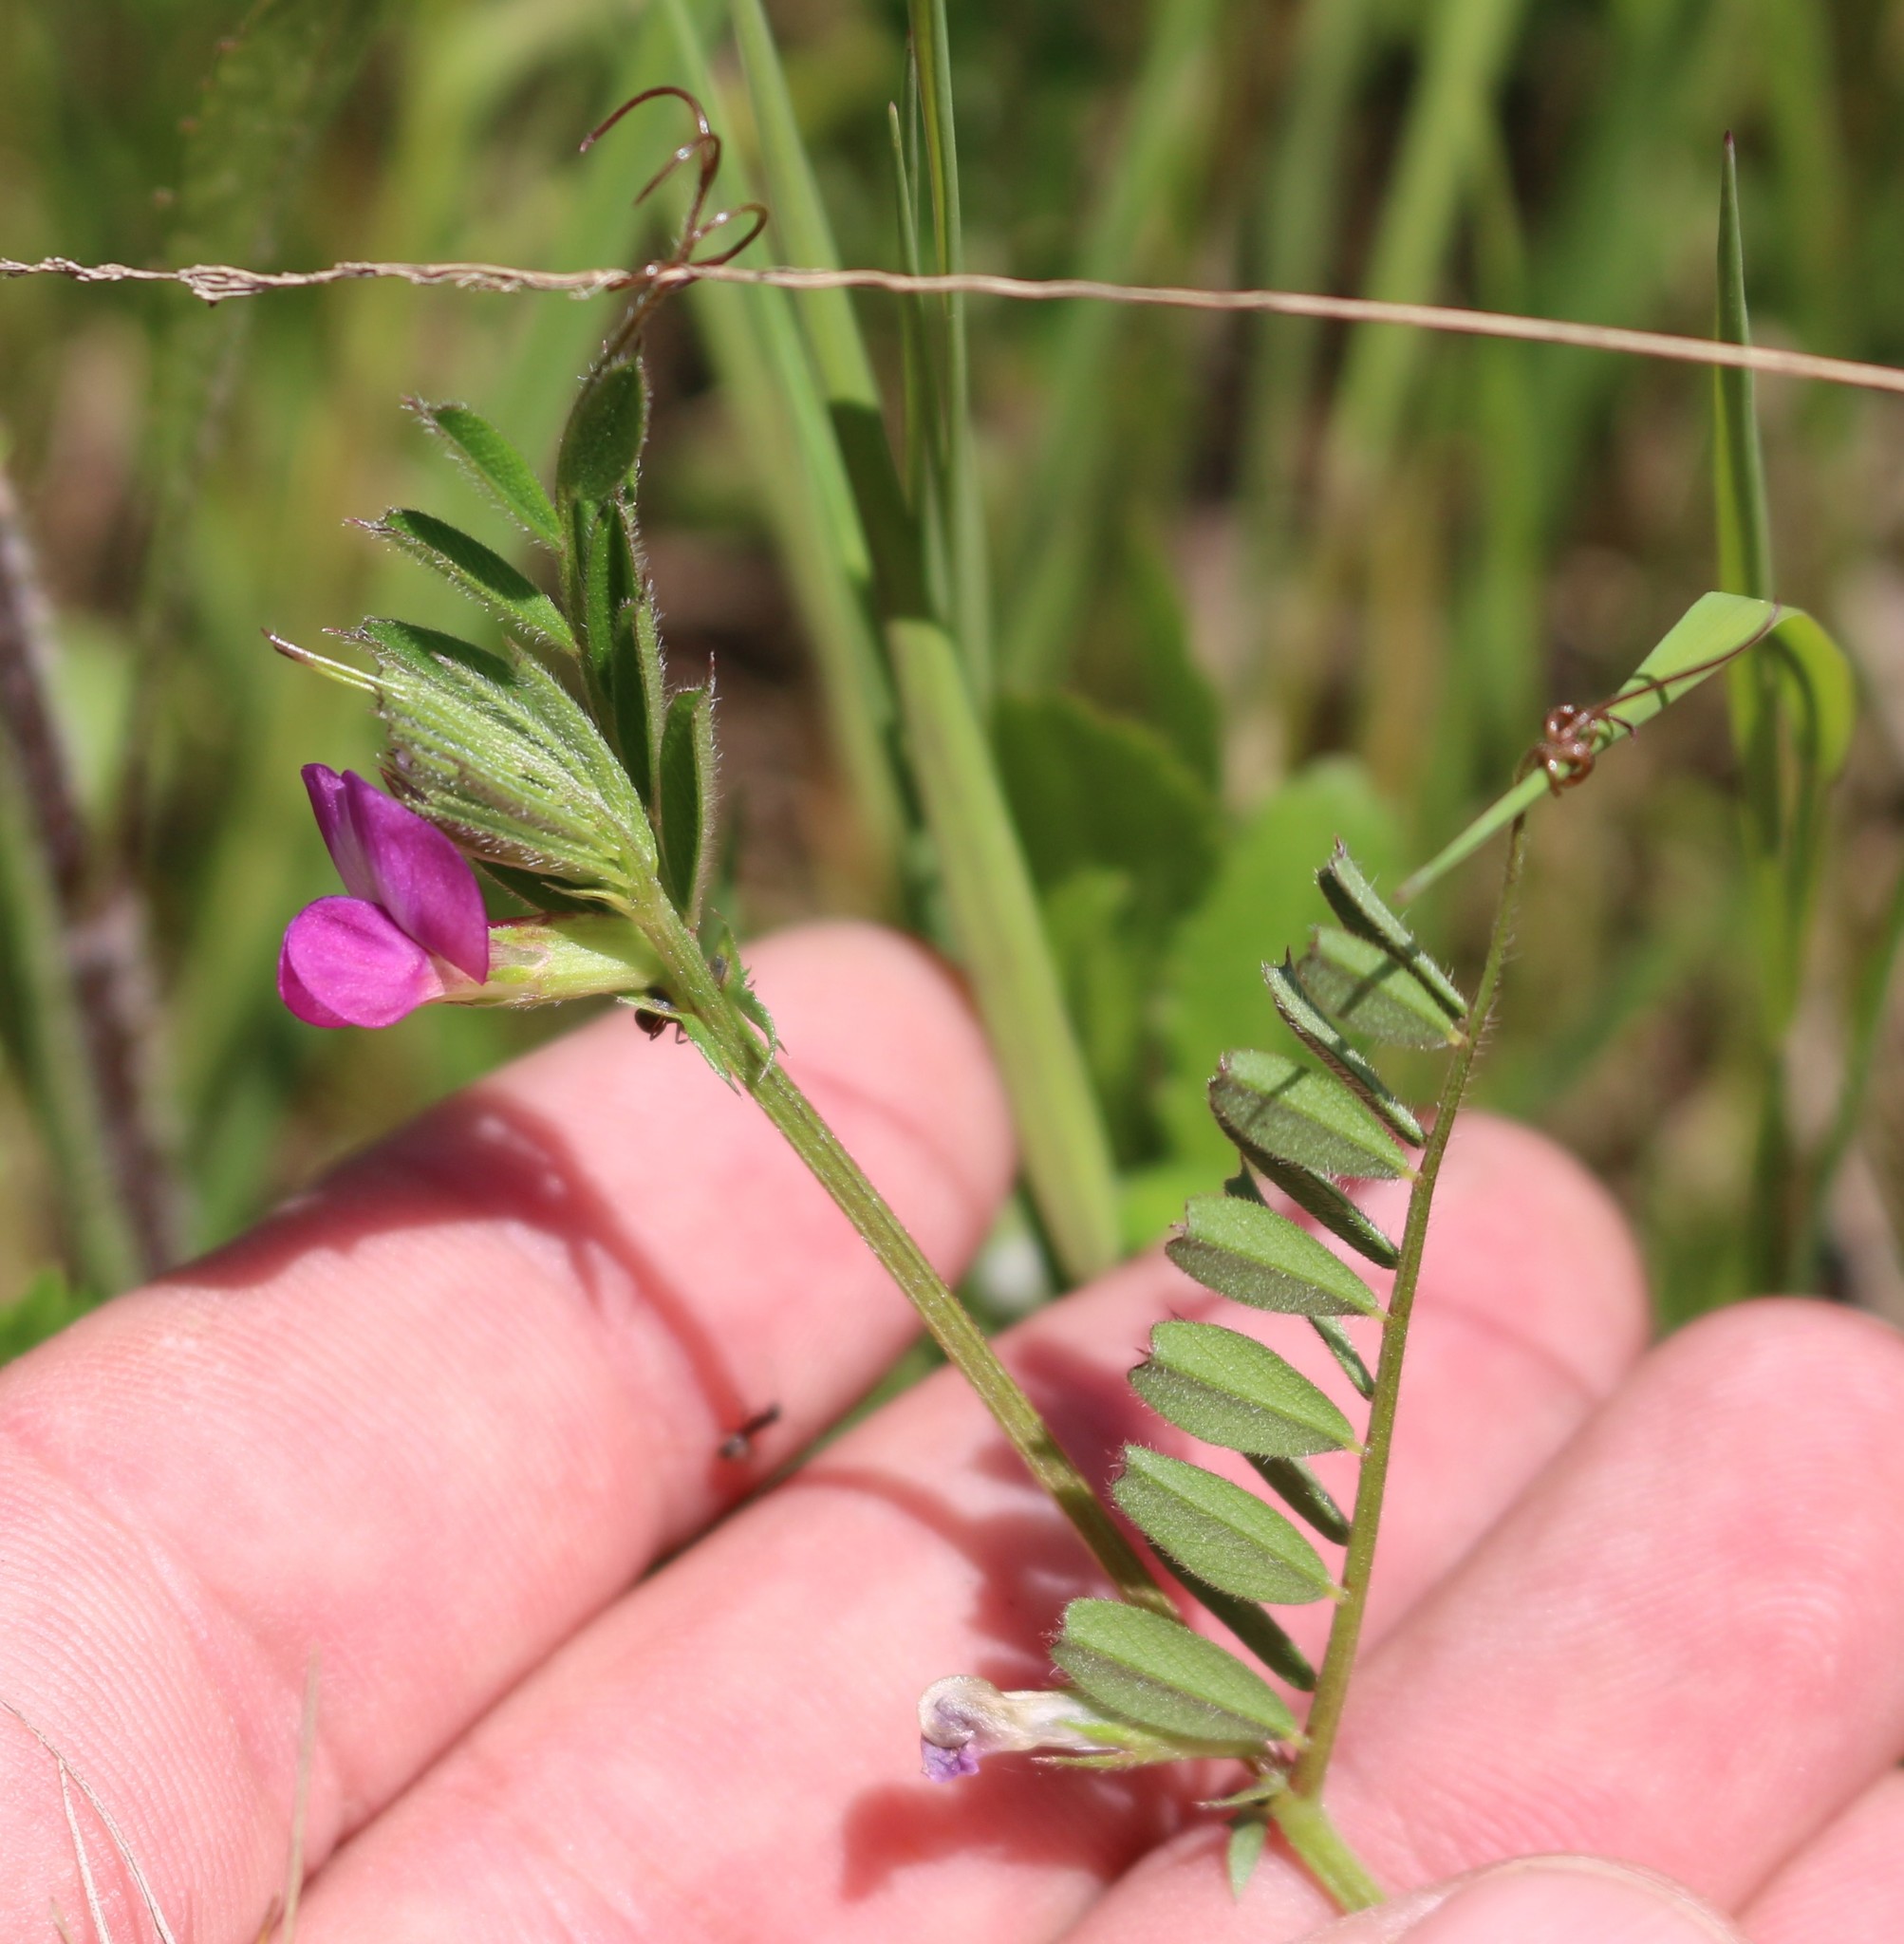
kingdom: Plantae
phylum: Tracheophyta
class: Magnoliopsida
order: Fabales
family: Fabaceae
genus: Vicia
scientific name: Vicia sativa
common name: Garden vetch
